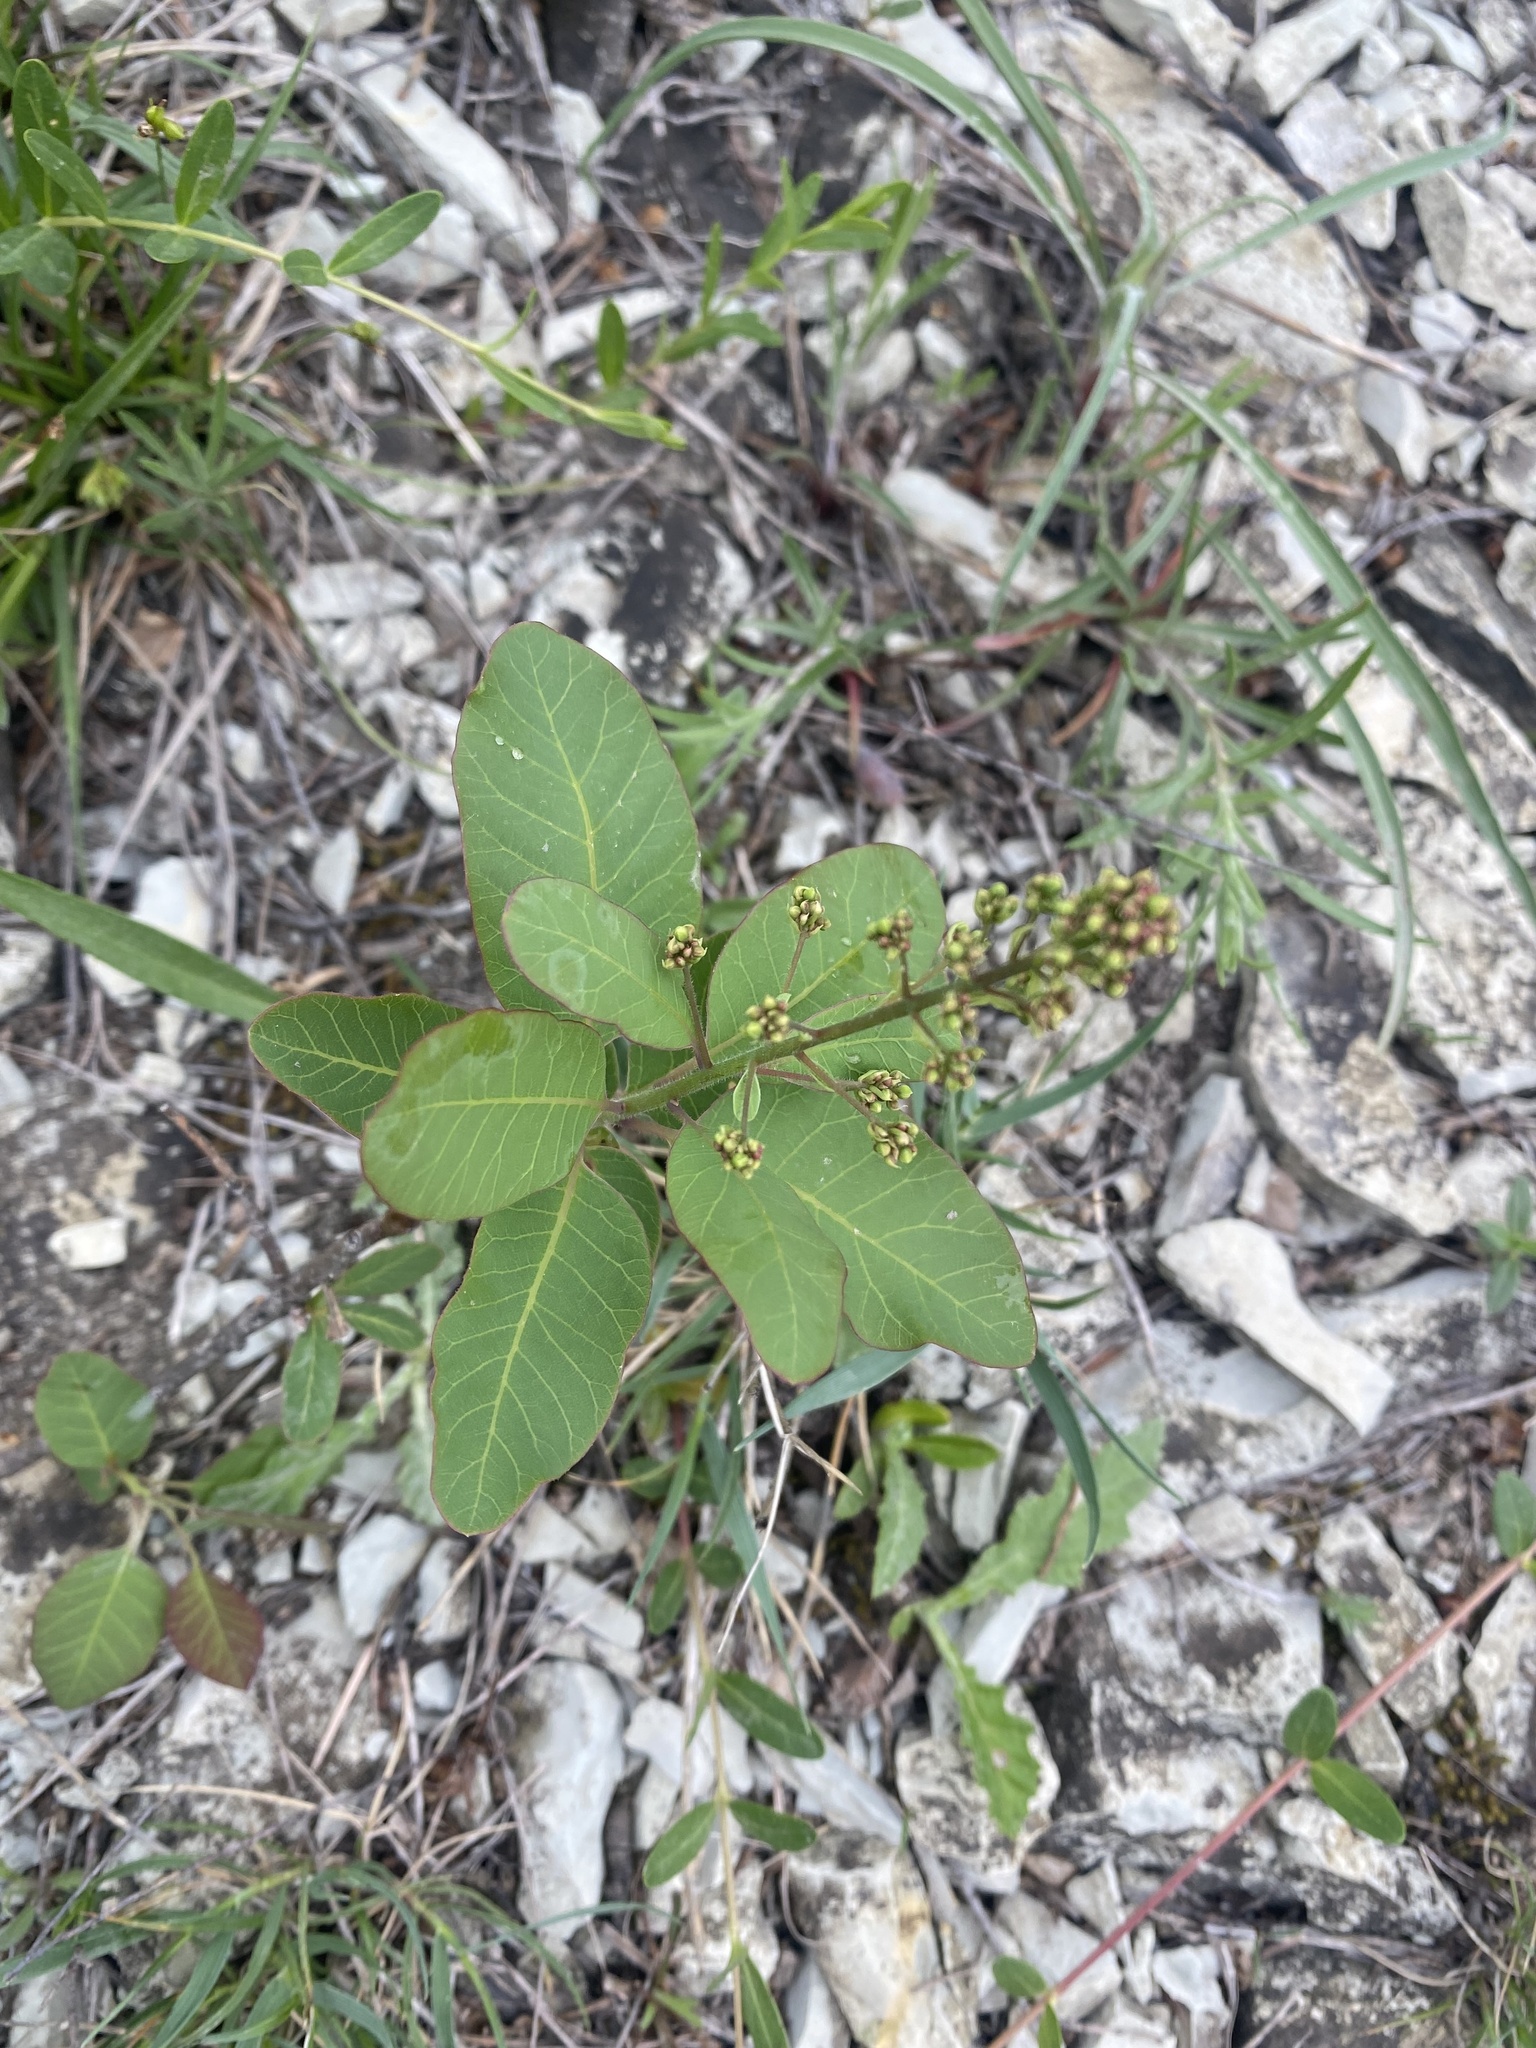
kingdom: Plantae
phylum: Tracheophyta
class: Magnoliopsida
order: Sapindales
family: Anacardiaceae
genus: Cotinus
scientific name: Cotinus coggygria
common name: Smoke-tree
